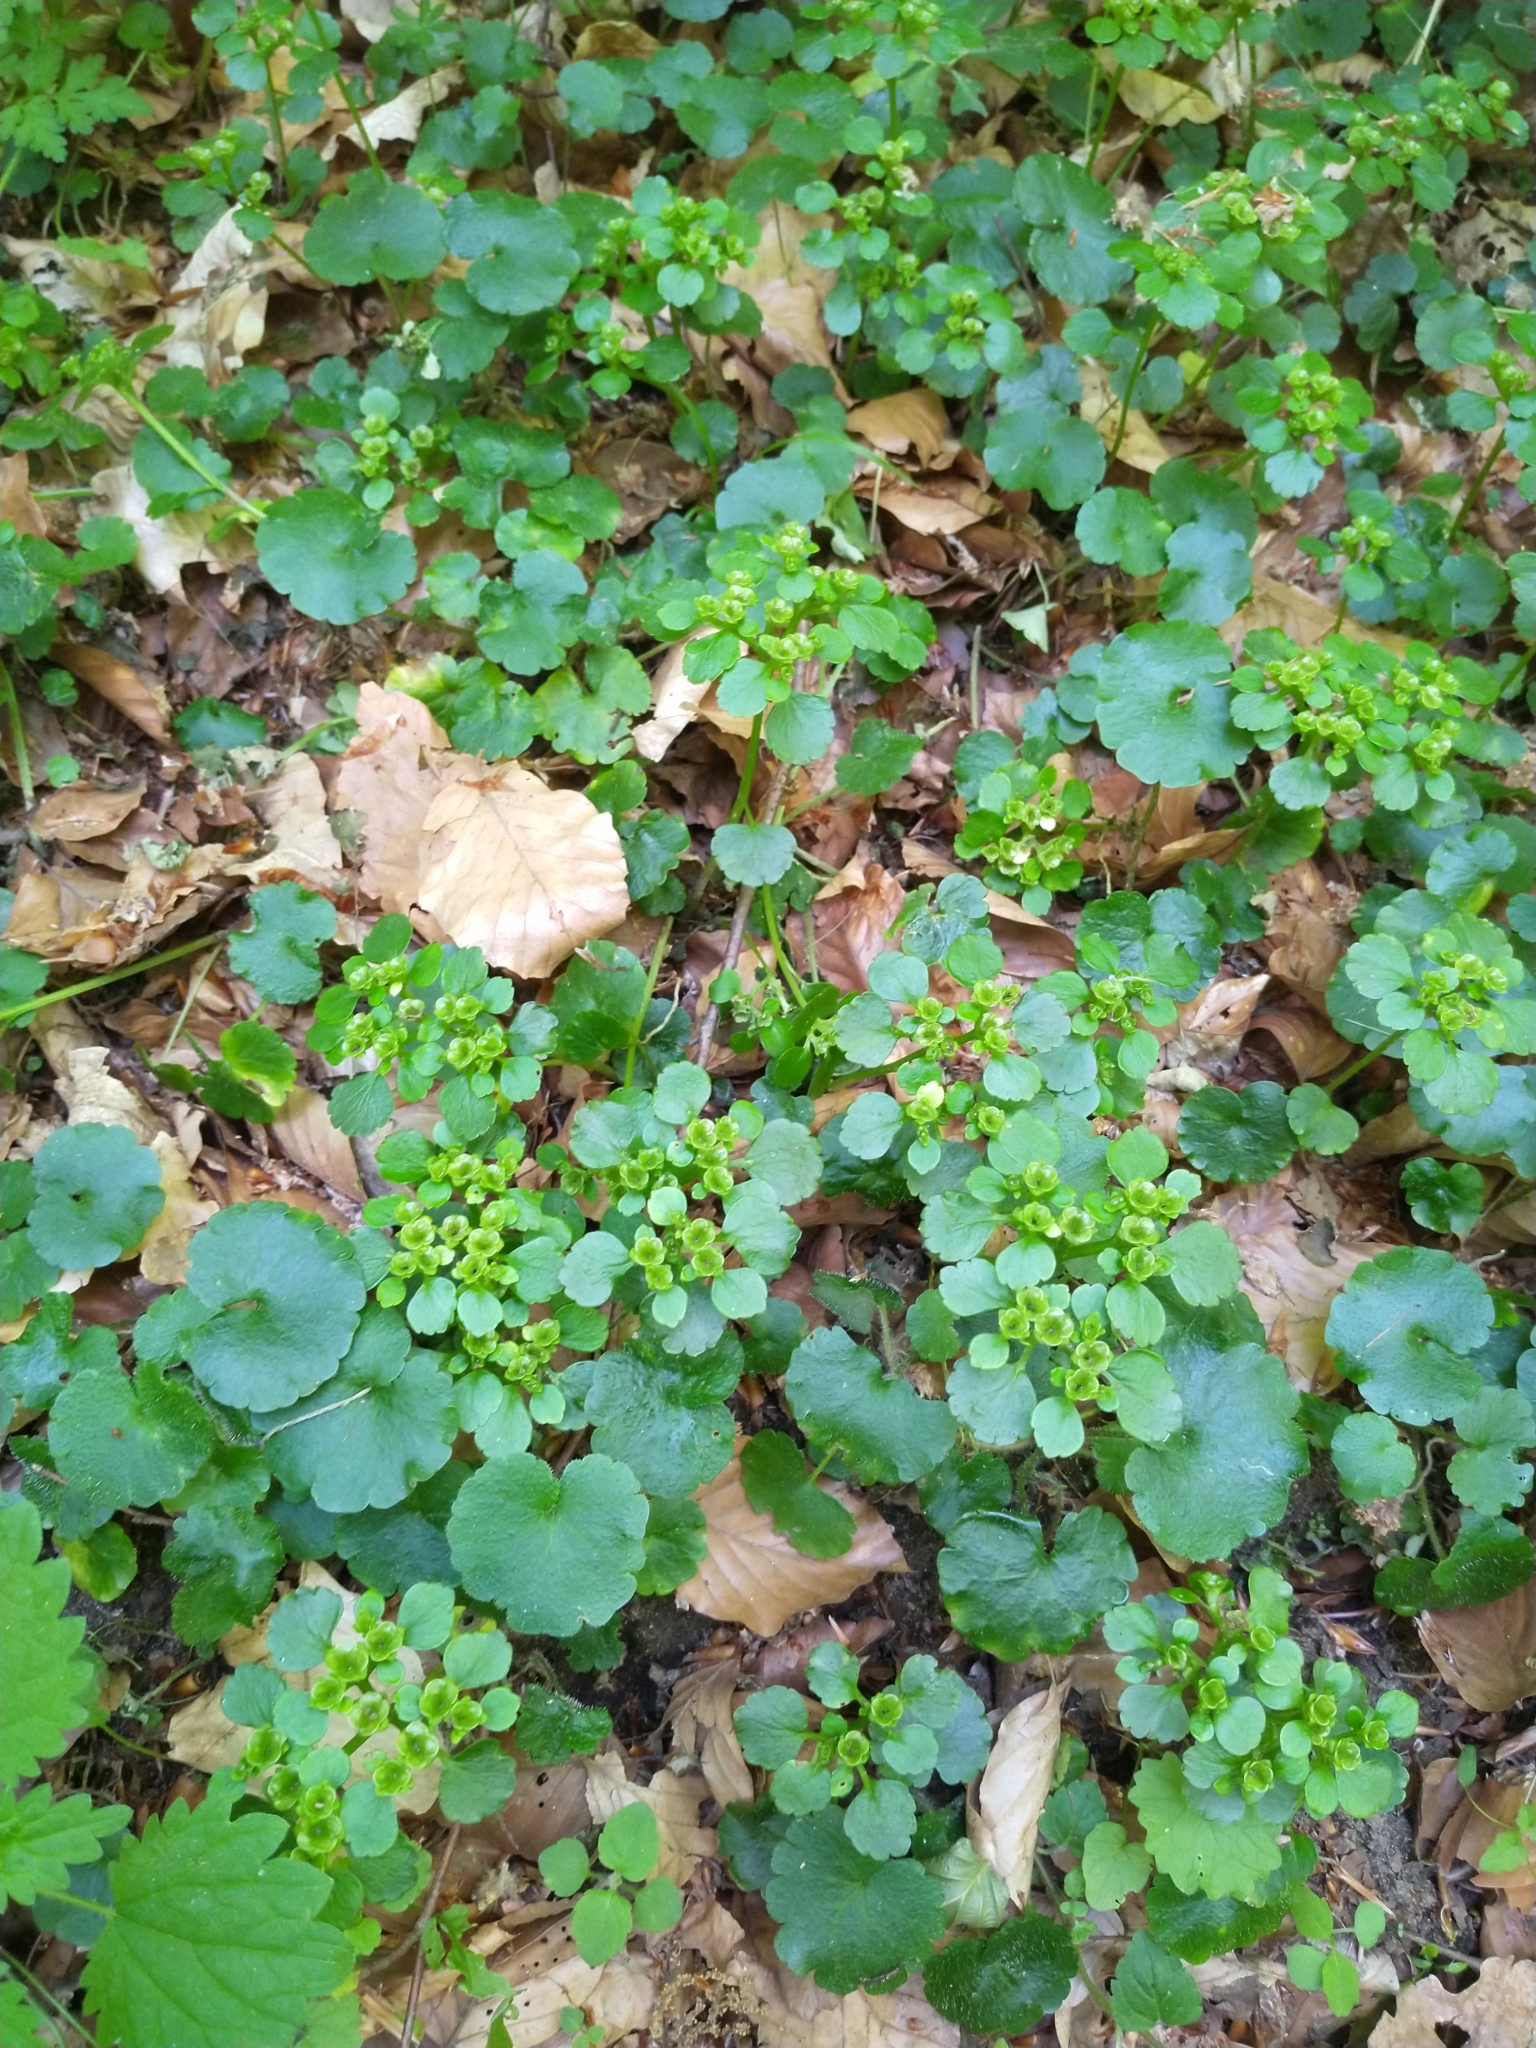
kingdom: Plantae
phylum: Tracheophyta
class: Magnoliopsida
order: Saxifragales
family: Saxifragaceae
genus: Chrysosplenium
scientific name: Chrysosplenium alternifolium
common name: Alternate-leaved golden-saxifrage
